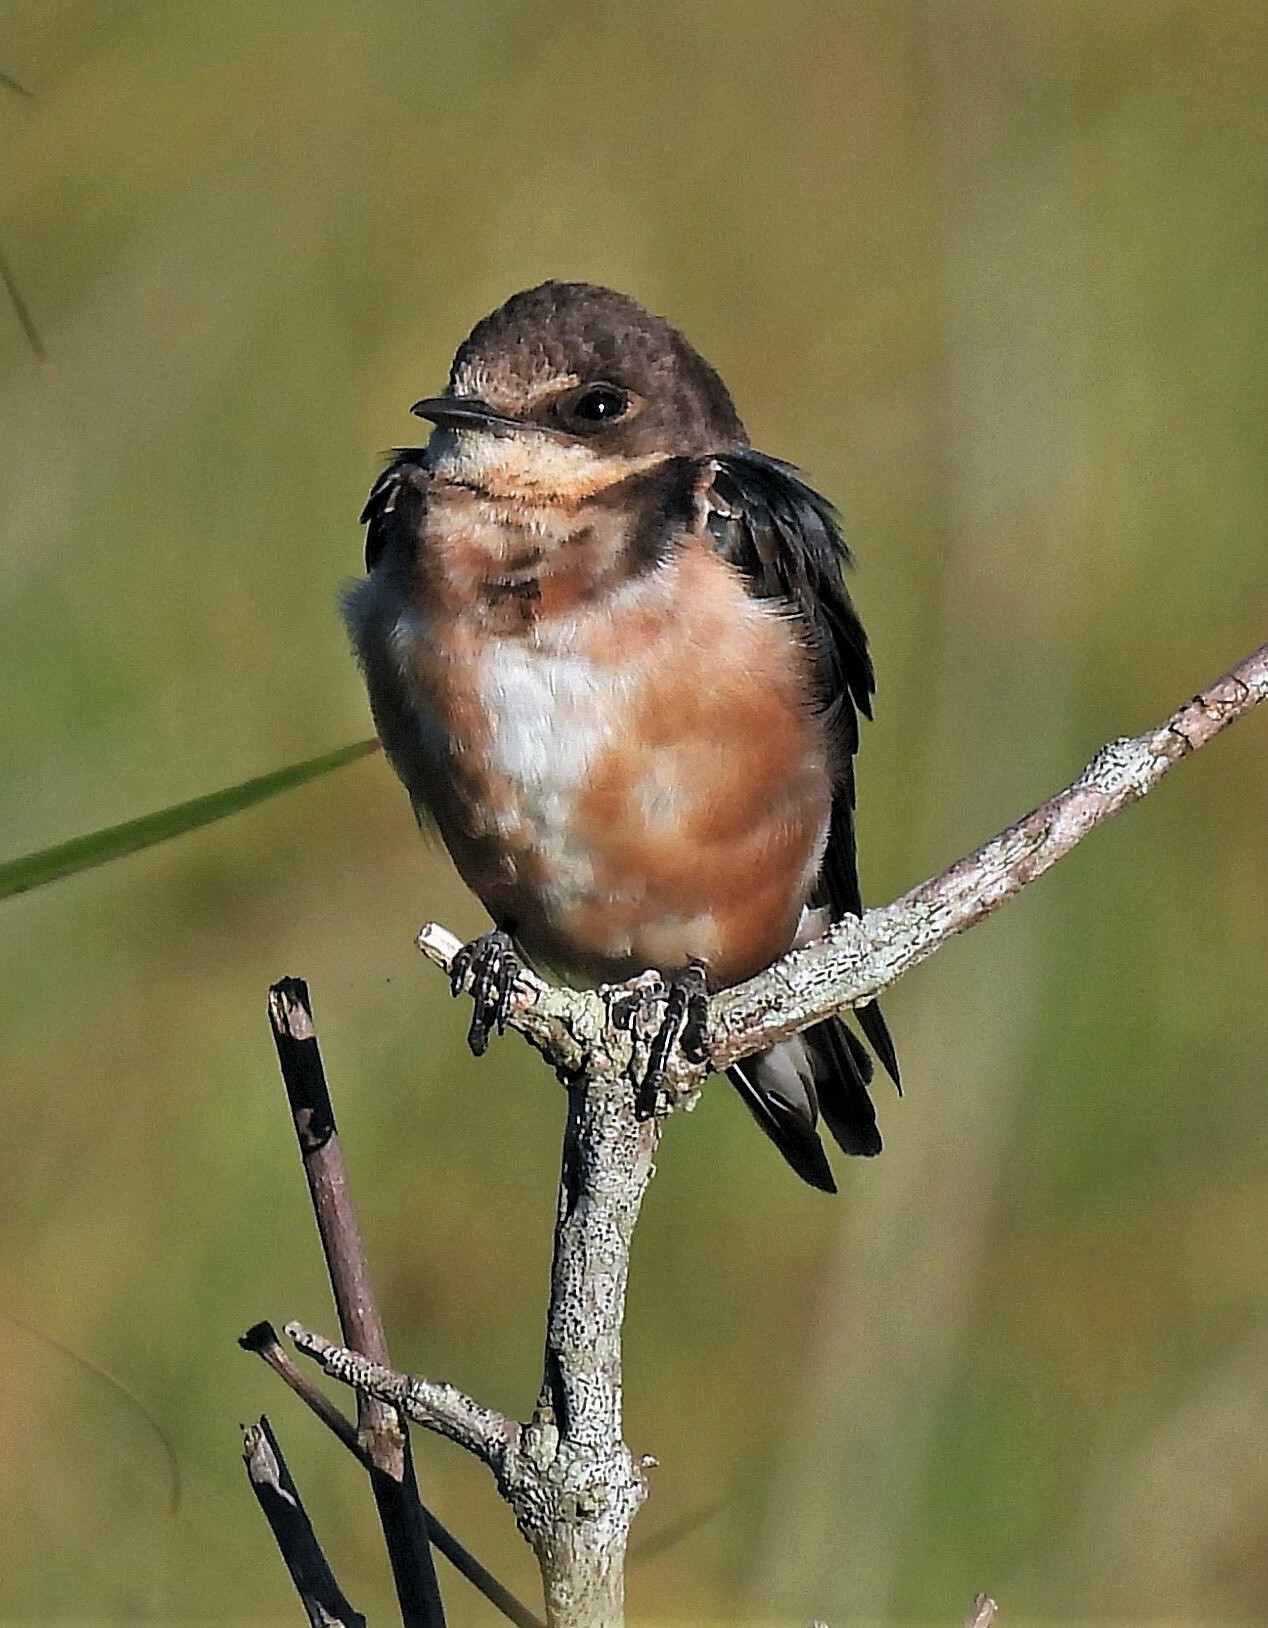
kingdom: Animalia
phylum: Chordata
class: Aves
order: Passeriformes
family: Hirundinidae
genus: Hirundo
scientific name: Hirundo rustica
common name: Barn swallow
